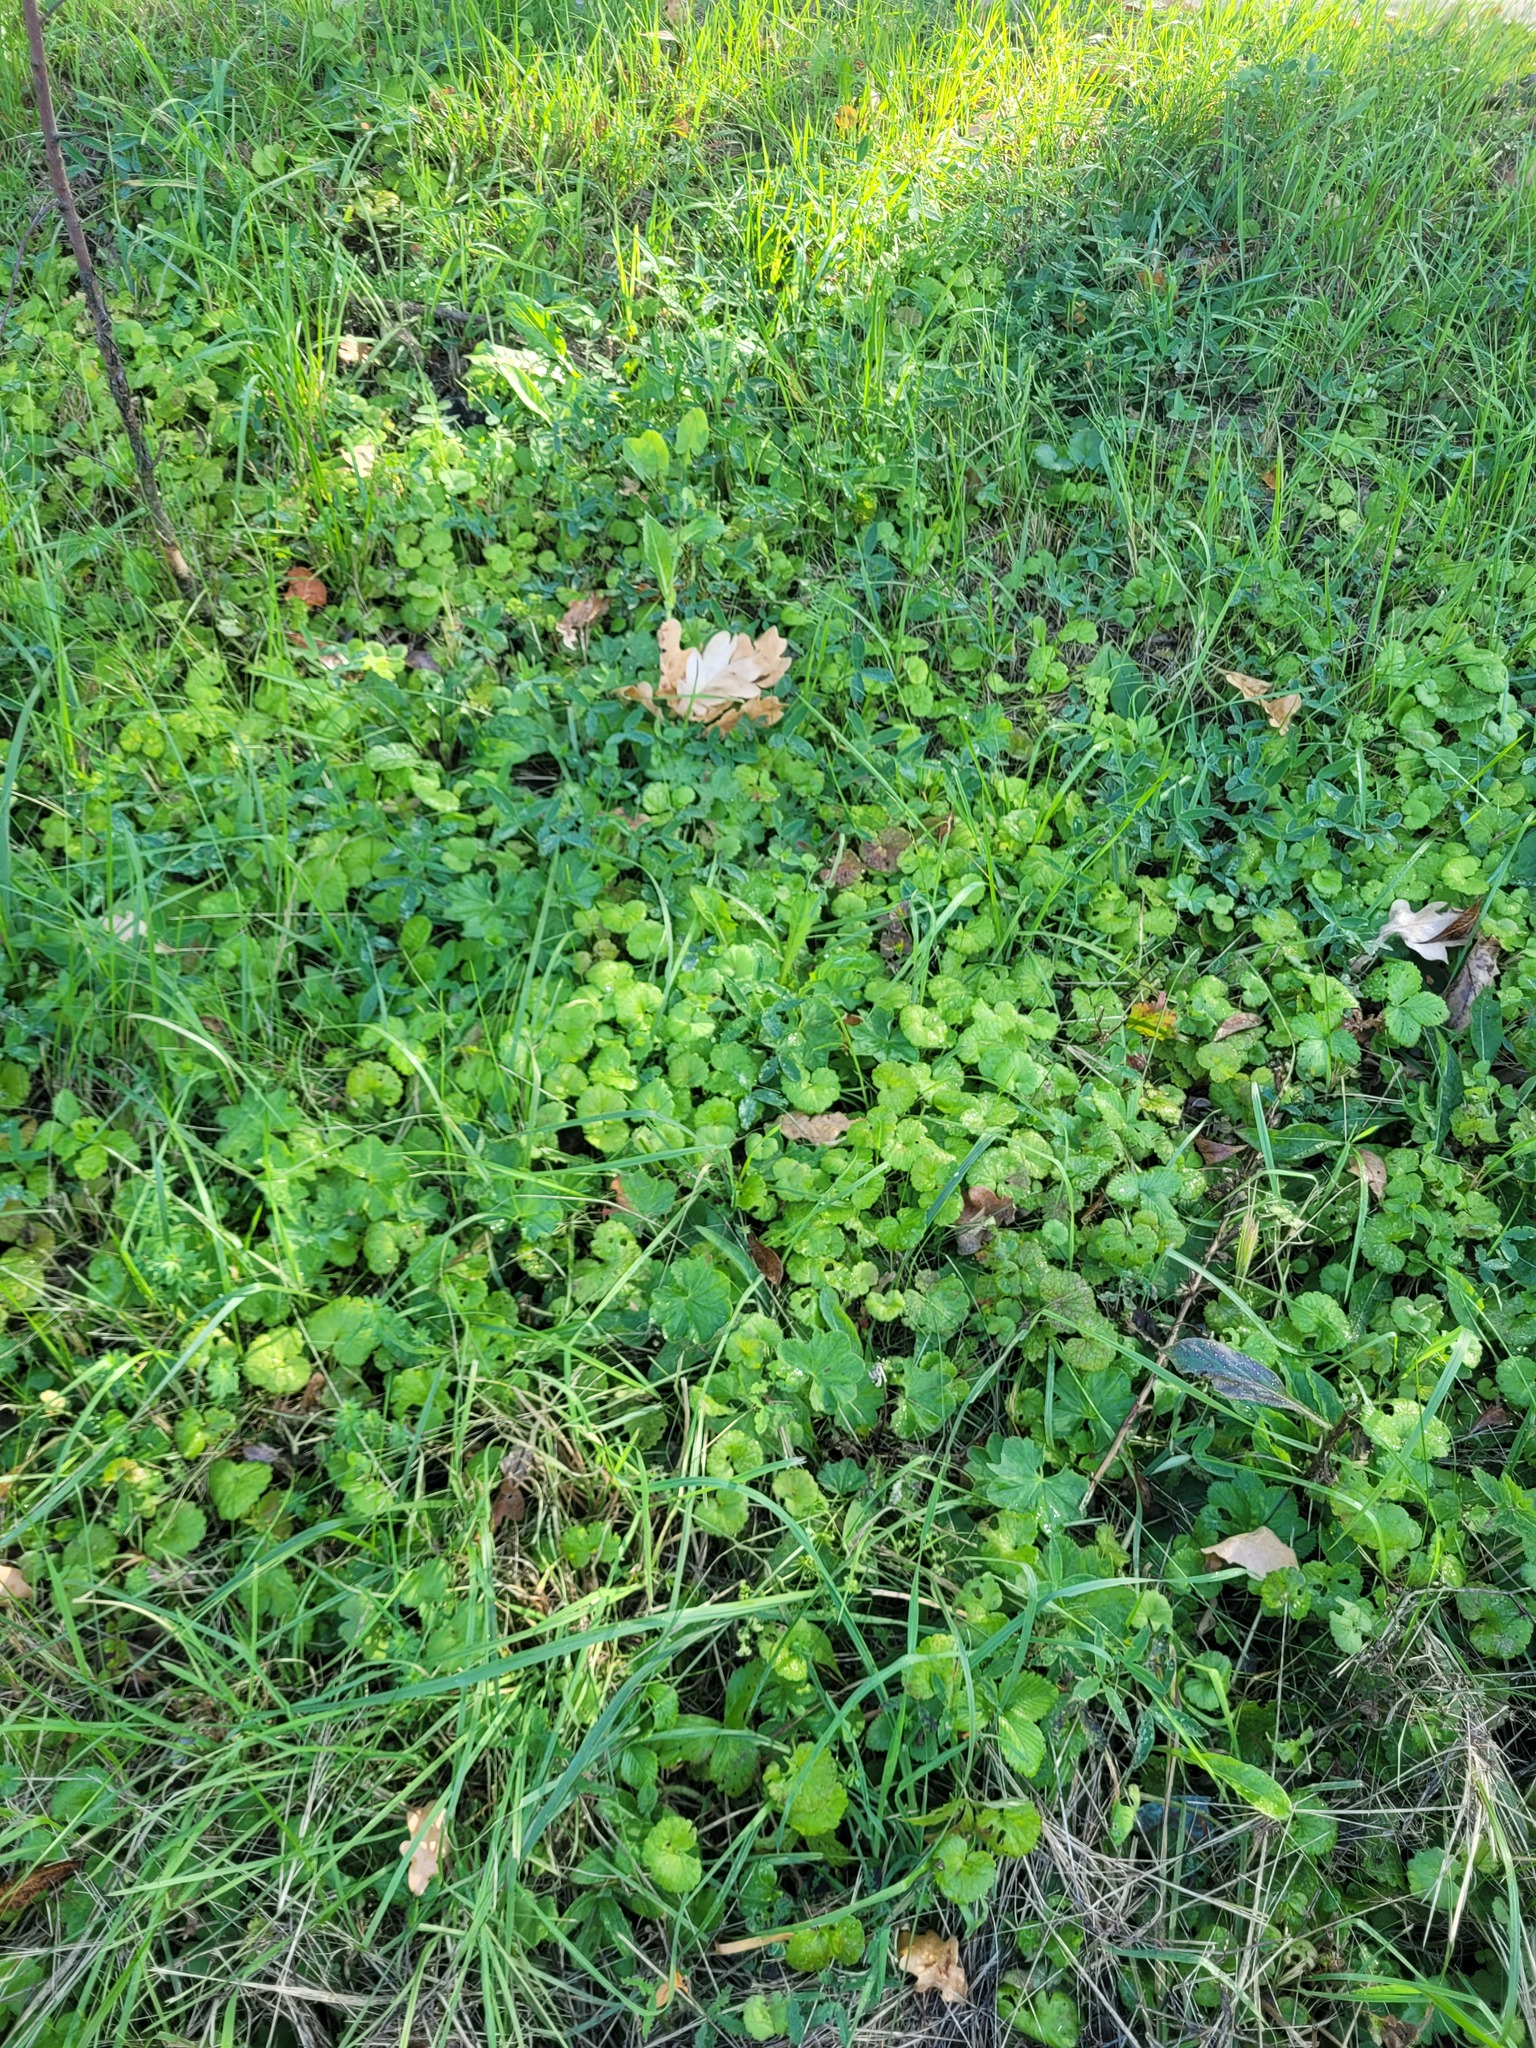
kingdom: Plantae
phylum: Tracheophyta
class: Magnoliopsida
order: Lamiales
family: Lamiaceae
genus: Glechoma
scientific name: Glechoma hederacea
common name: Ground ivy
